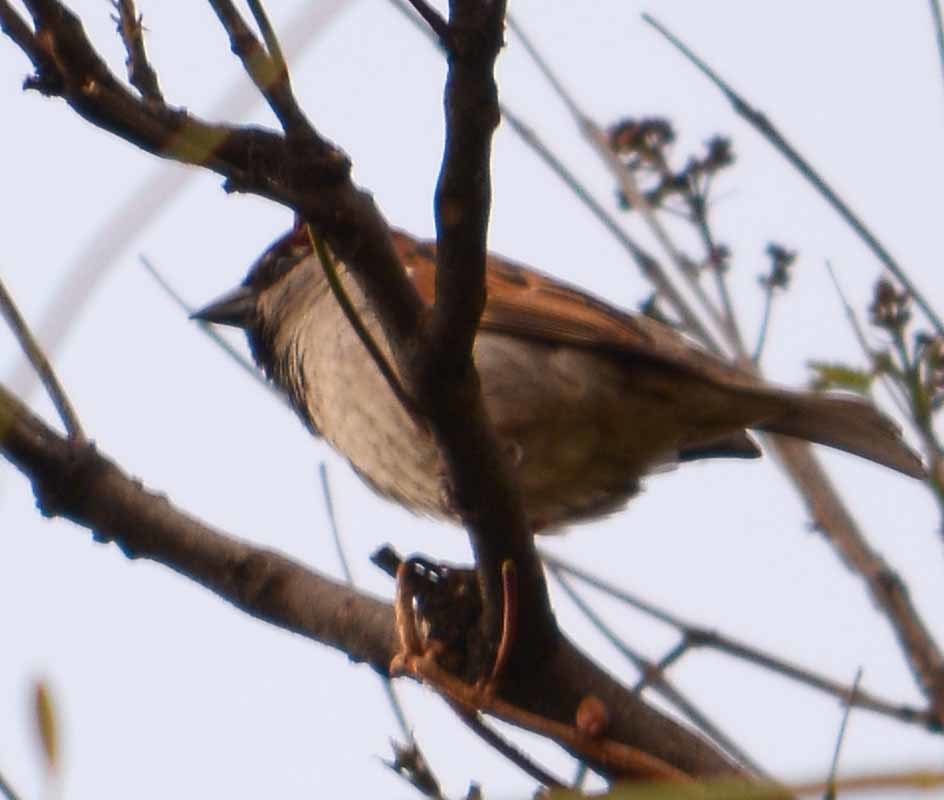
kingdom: Animalia
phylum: Chordata
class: Aves
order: Passeriformes
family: Passeridae
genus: Passer
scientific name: Passer domesticus
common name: House sparrow
